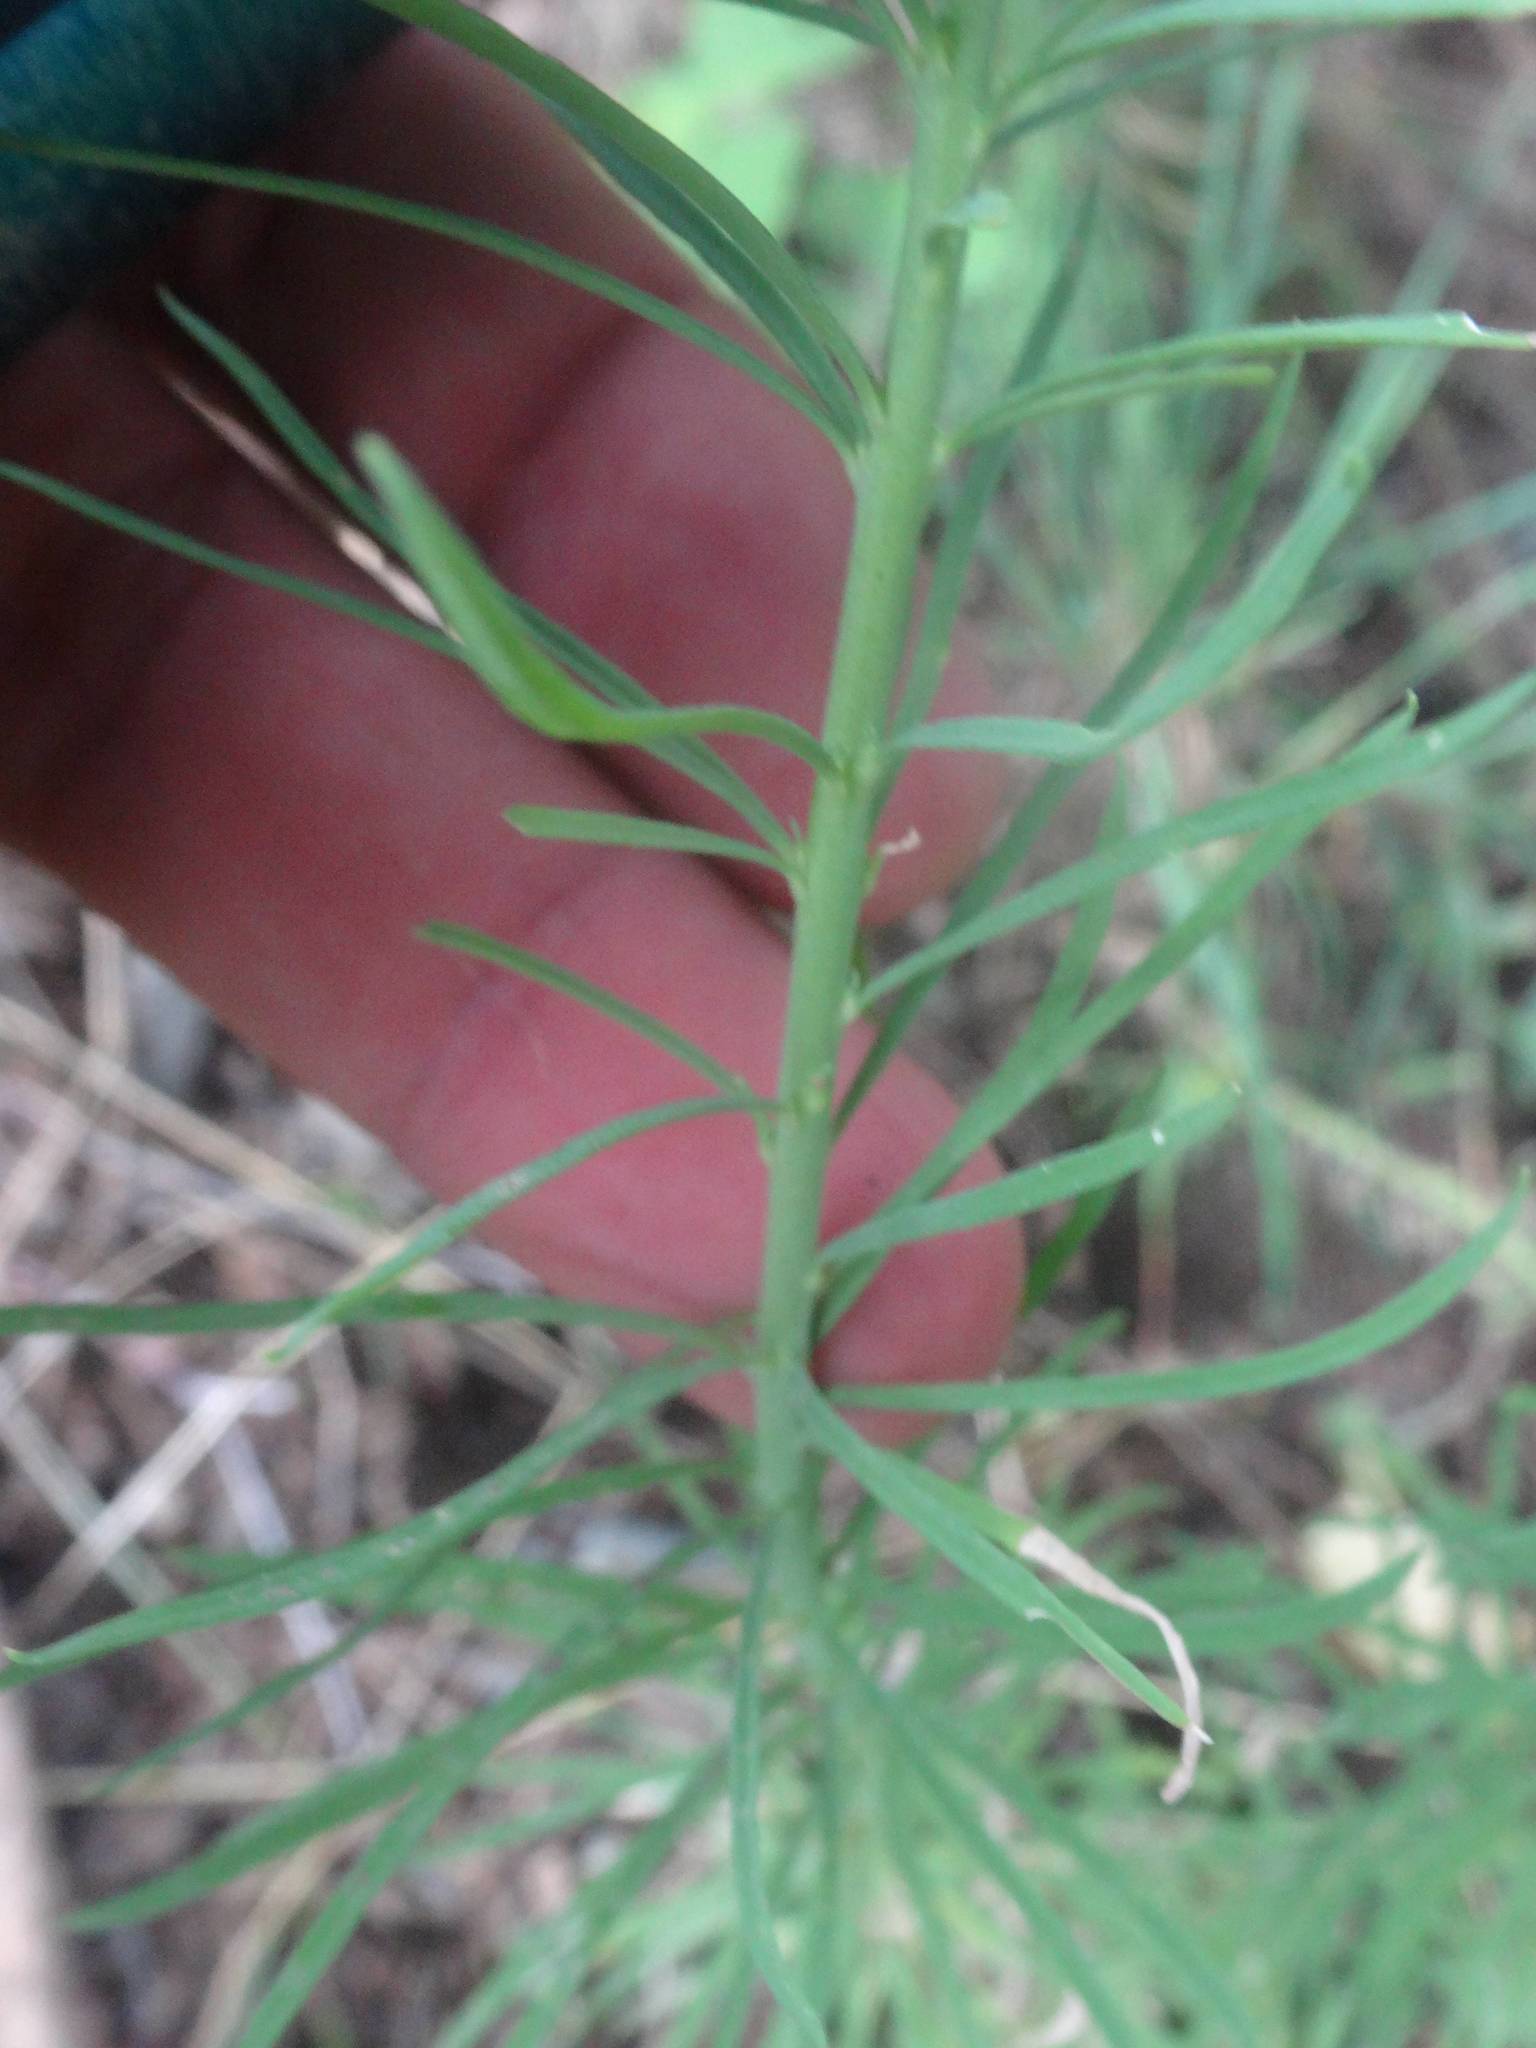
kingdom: Plantae
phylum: Tracheophyta
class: Magnoliopsida
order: Lamiales
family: Plantaginaceae
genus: Linaria
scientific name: Linaria repens
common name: Pale toadflax
